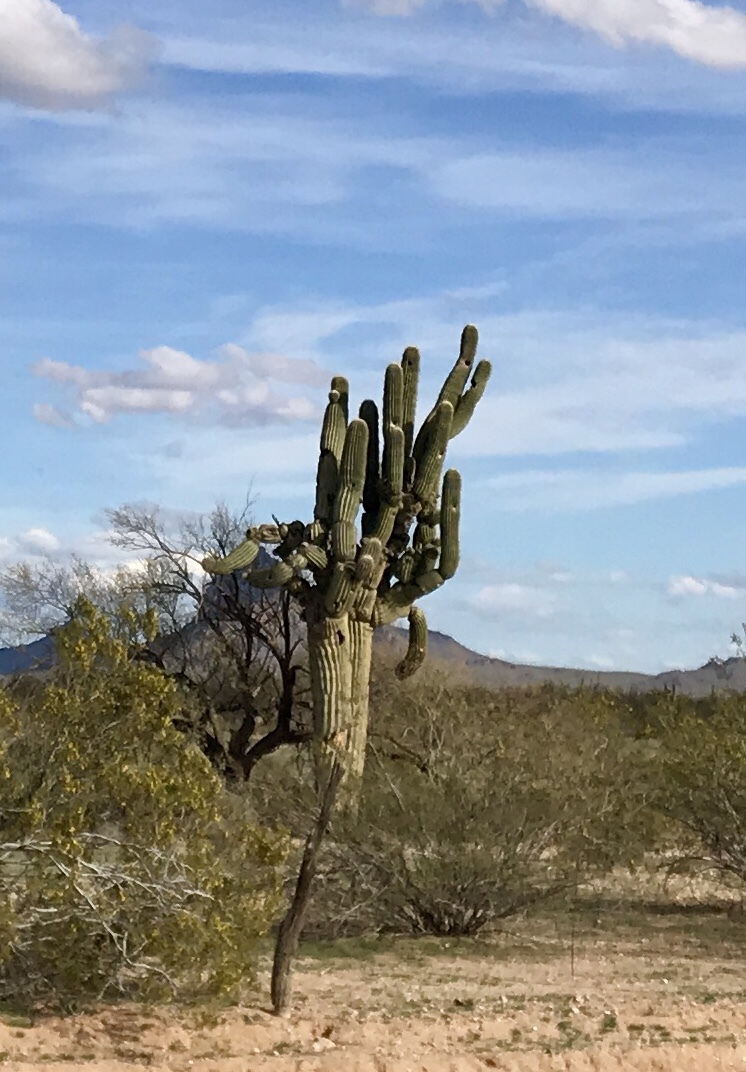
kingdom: Plantae
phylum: Tracheophyta
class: Magnoliopsida
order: Caryophyllales
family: Cactaceae
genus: Carnegiea
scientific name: Carnegiea gigantea
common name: Saguaro
